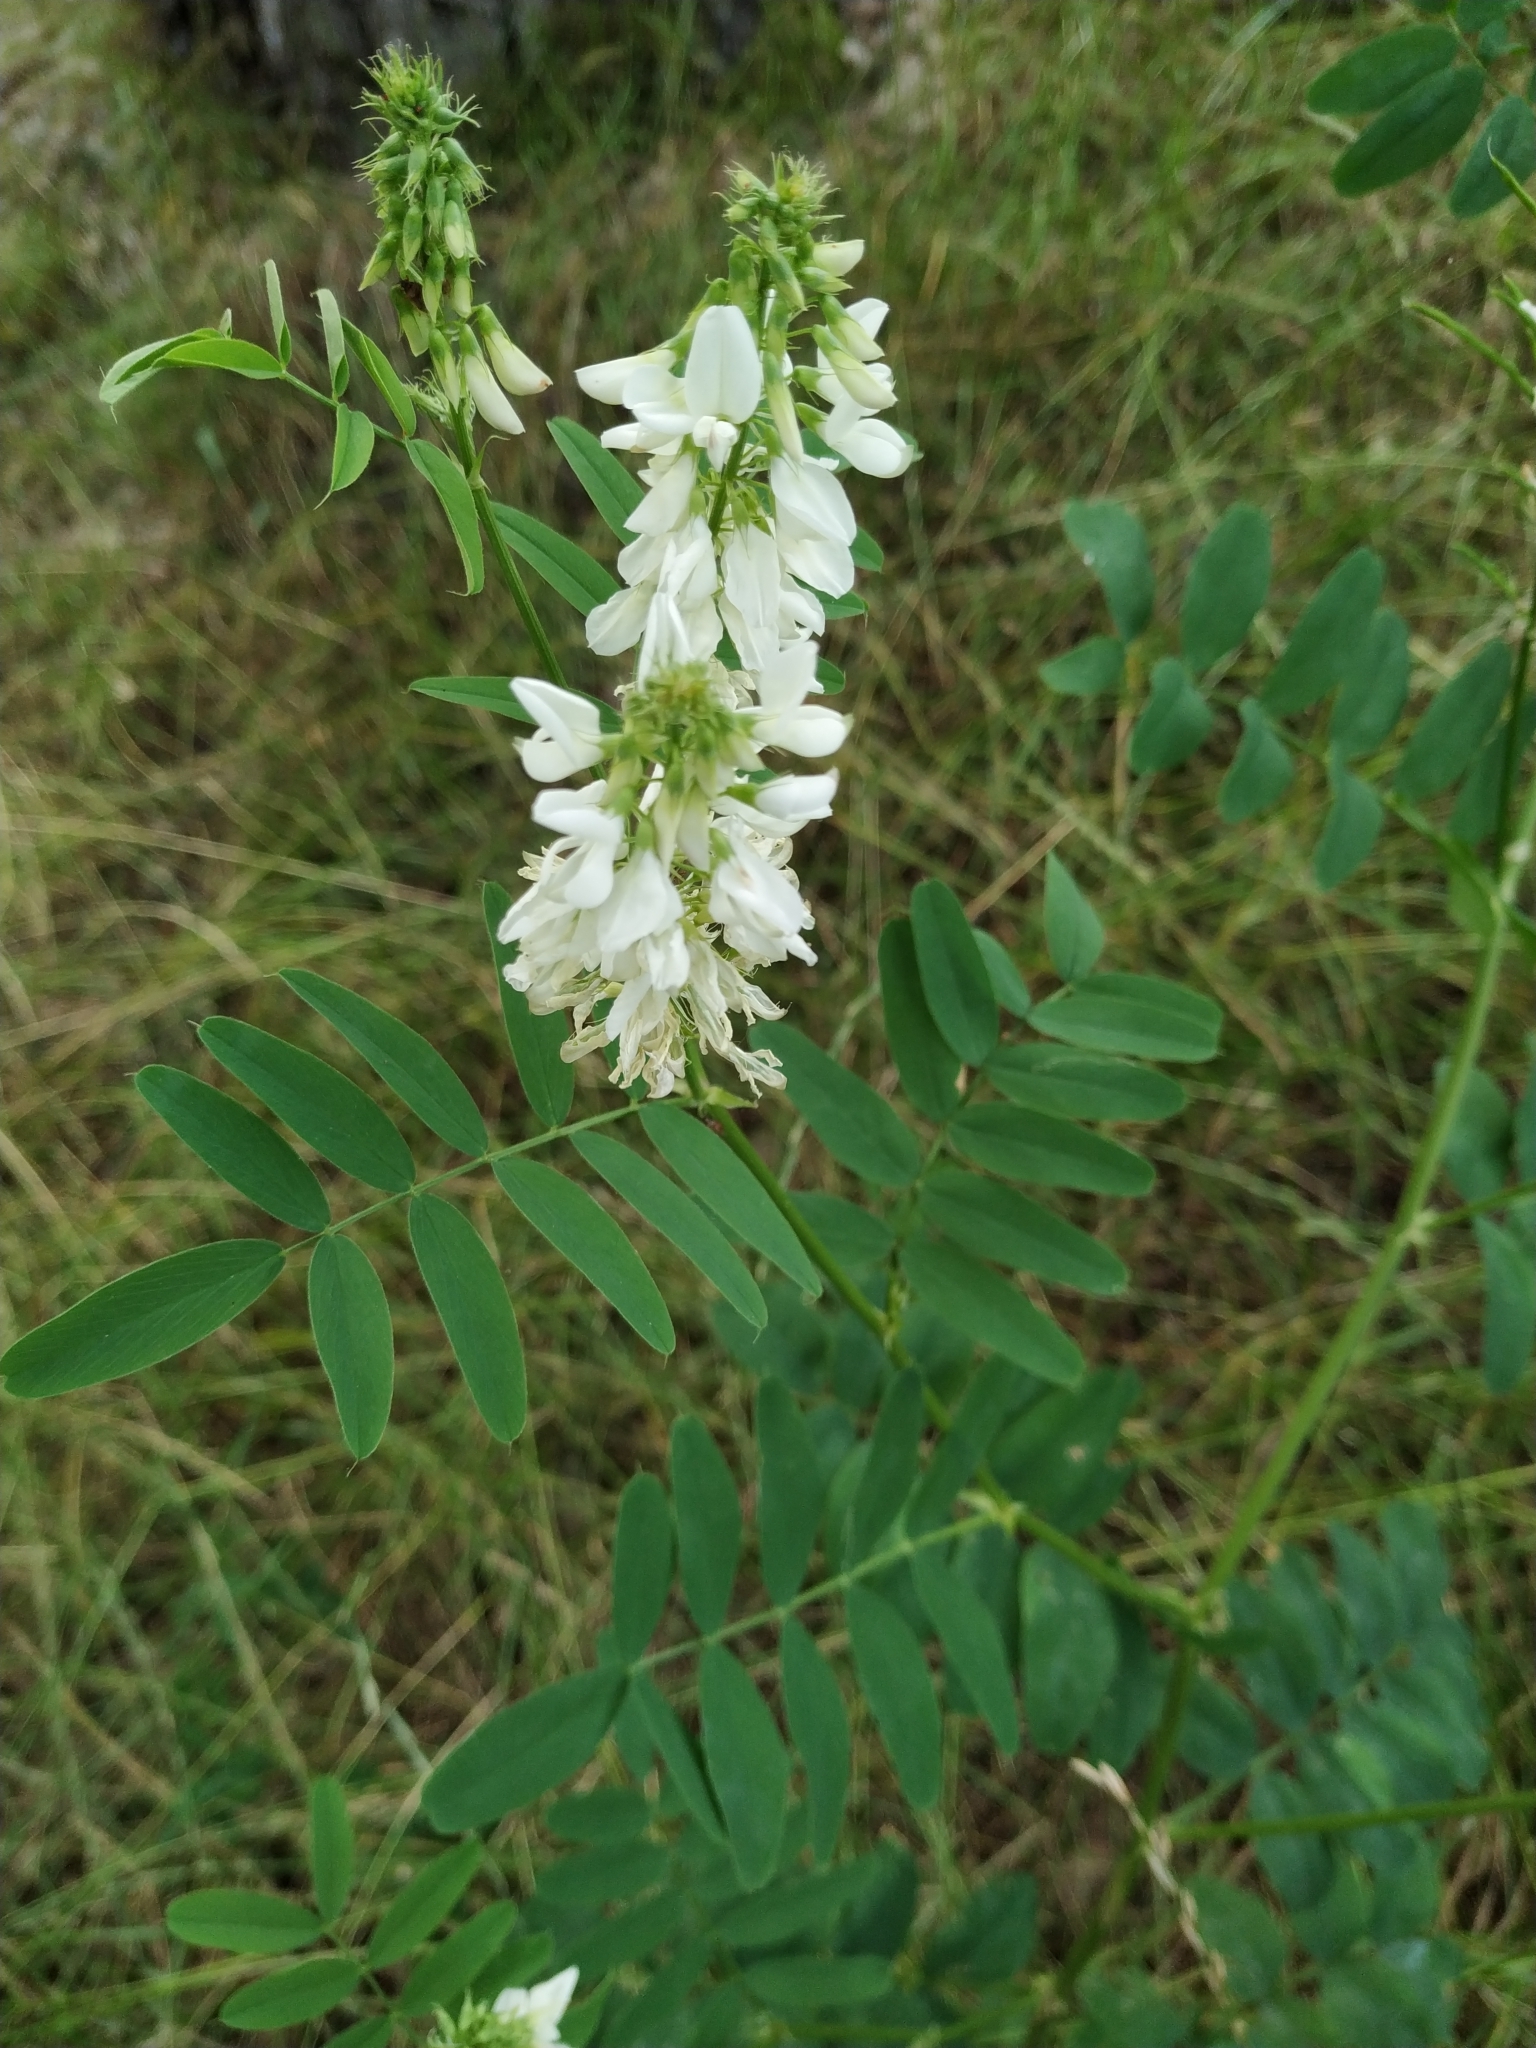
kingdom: Plantae
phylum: Tracheophyta
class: Magnoliopsida
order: Fabales
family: Fabaceae
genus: Galega
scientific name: Galega officinalis
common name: Goat's-rue
